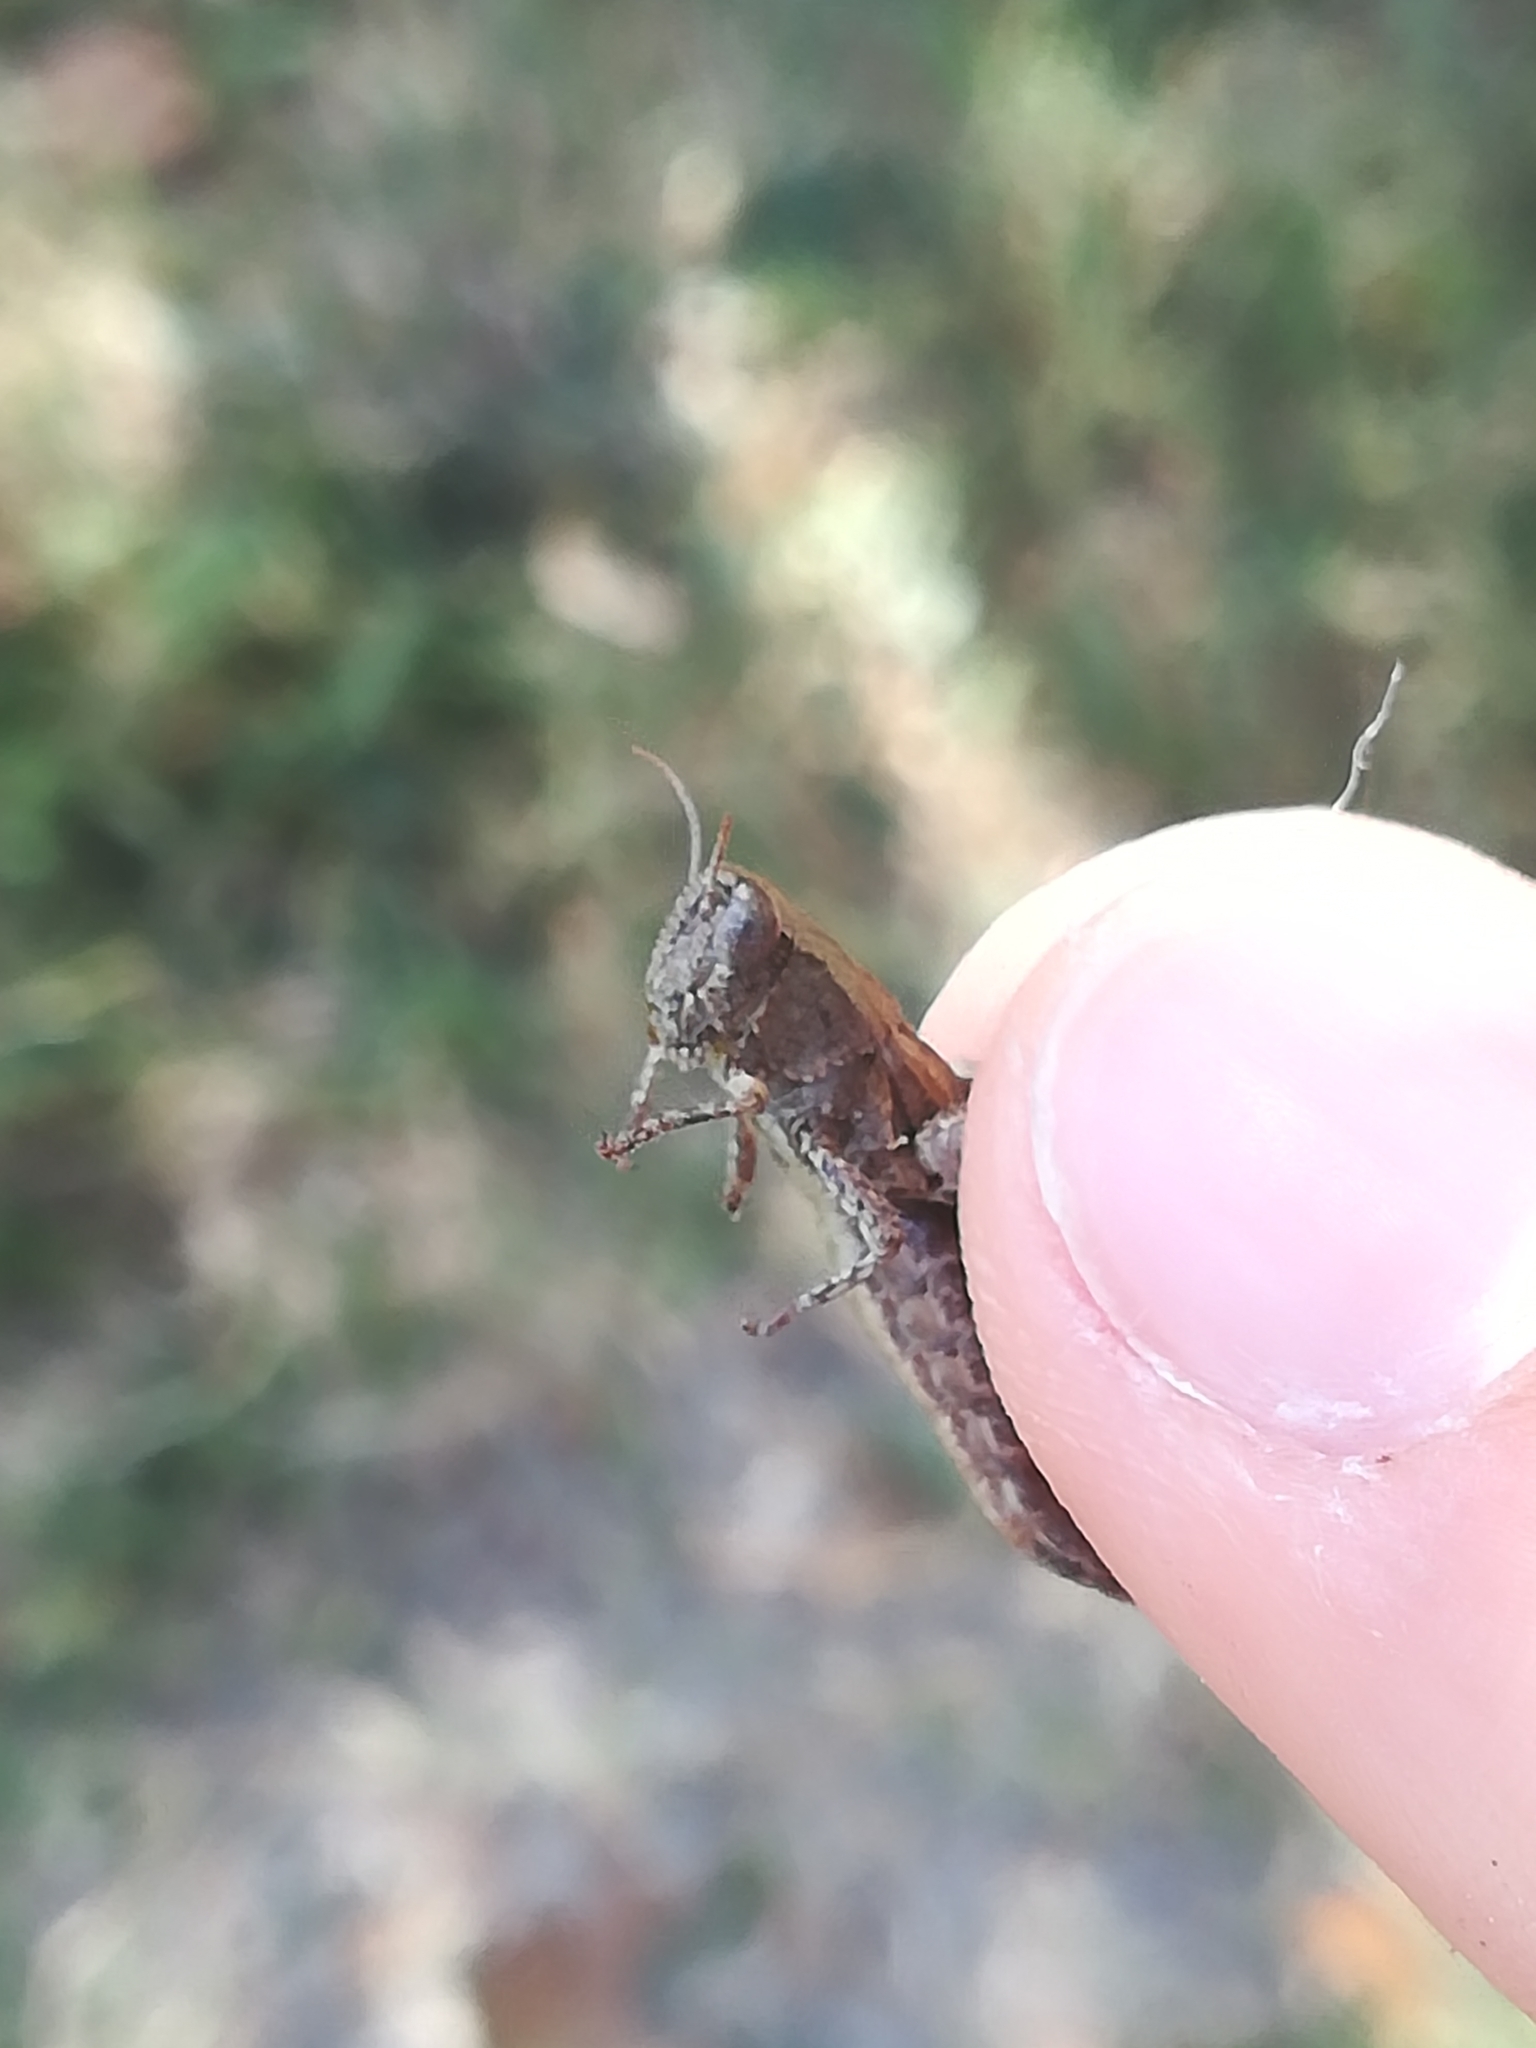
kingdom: Animalia
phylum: Arthropoda
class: Insecta
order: Orthoptera
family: Acrididae
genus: Pezotettix
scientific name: Pezotettix giornae
